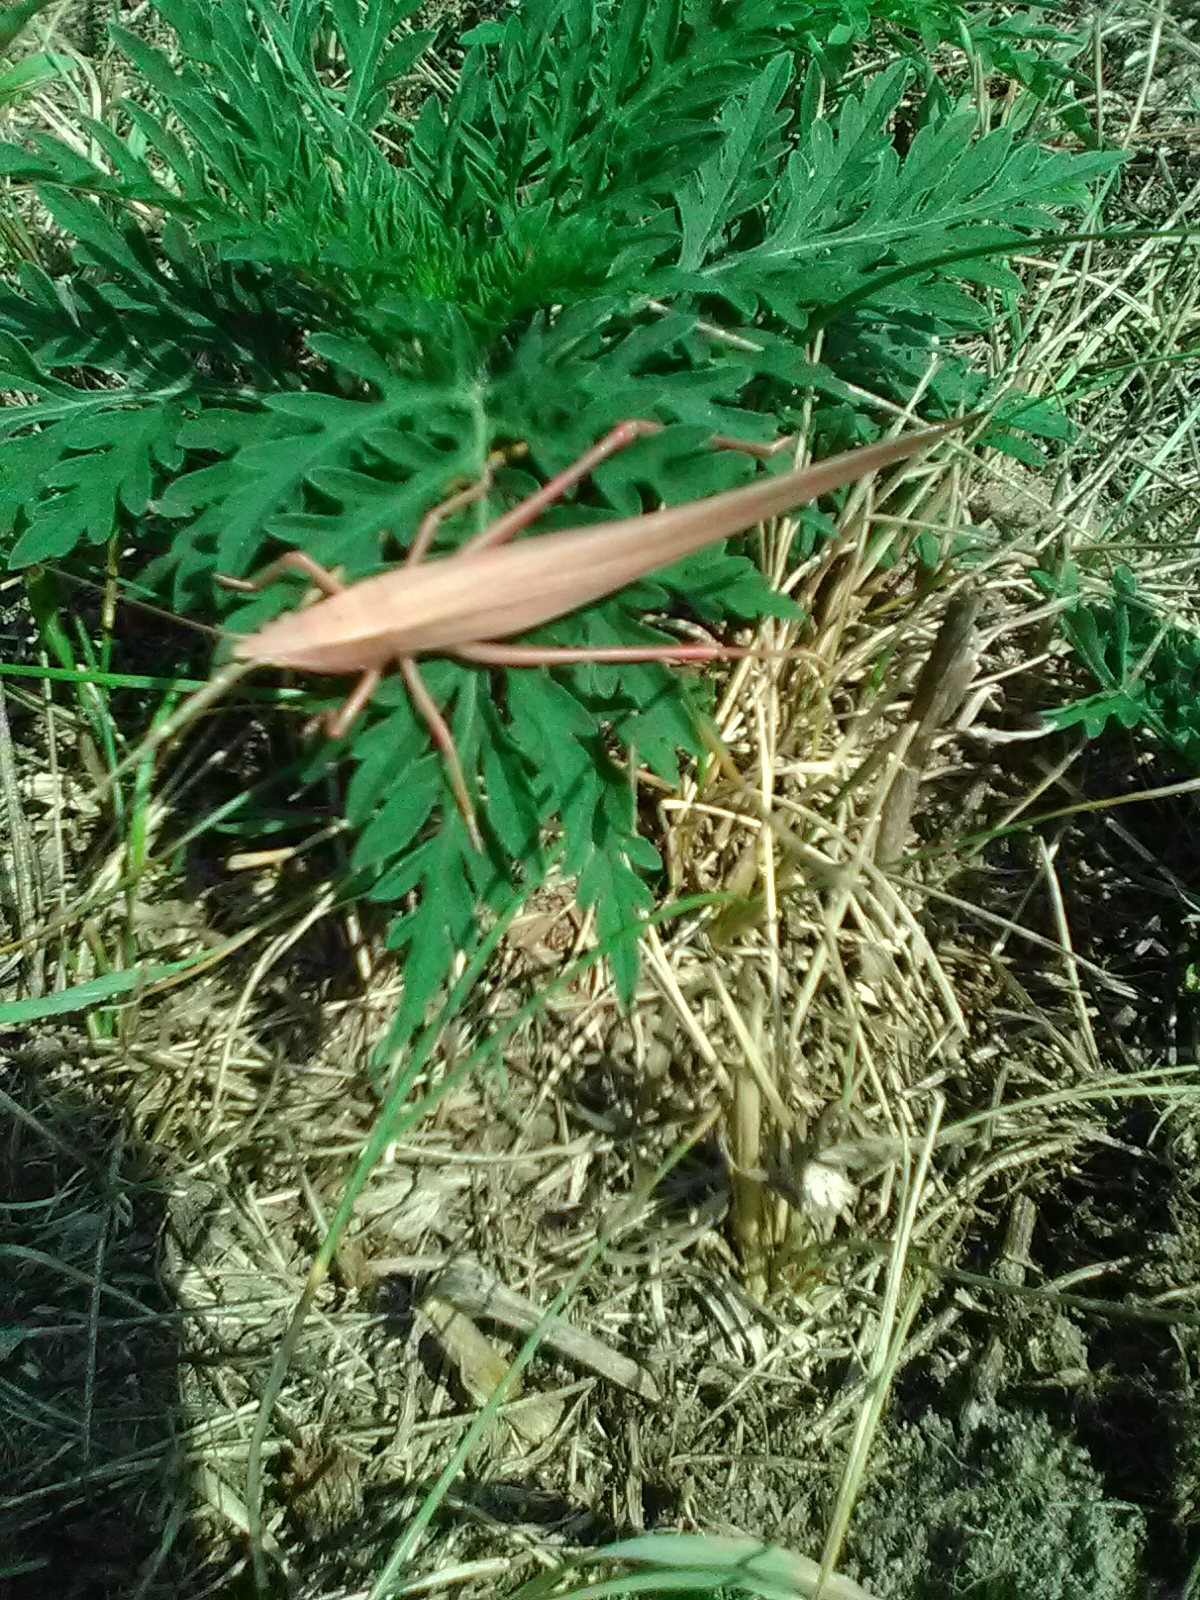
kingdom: Animalia
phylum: Arthropoda
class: Insecta
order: Orthoptera
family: Tettigoniidae
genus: Neoconocephalus
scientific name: Neoconocephalus ensiger
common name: Swordbearer
